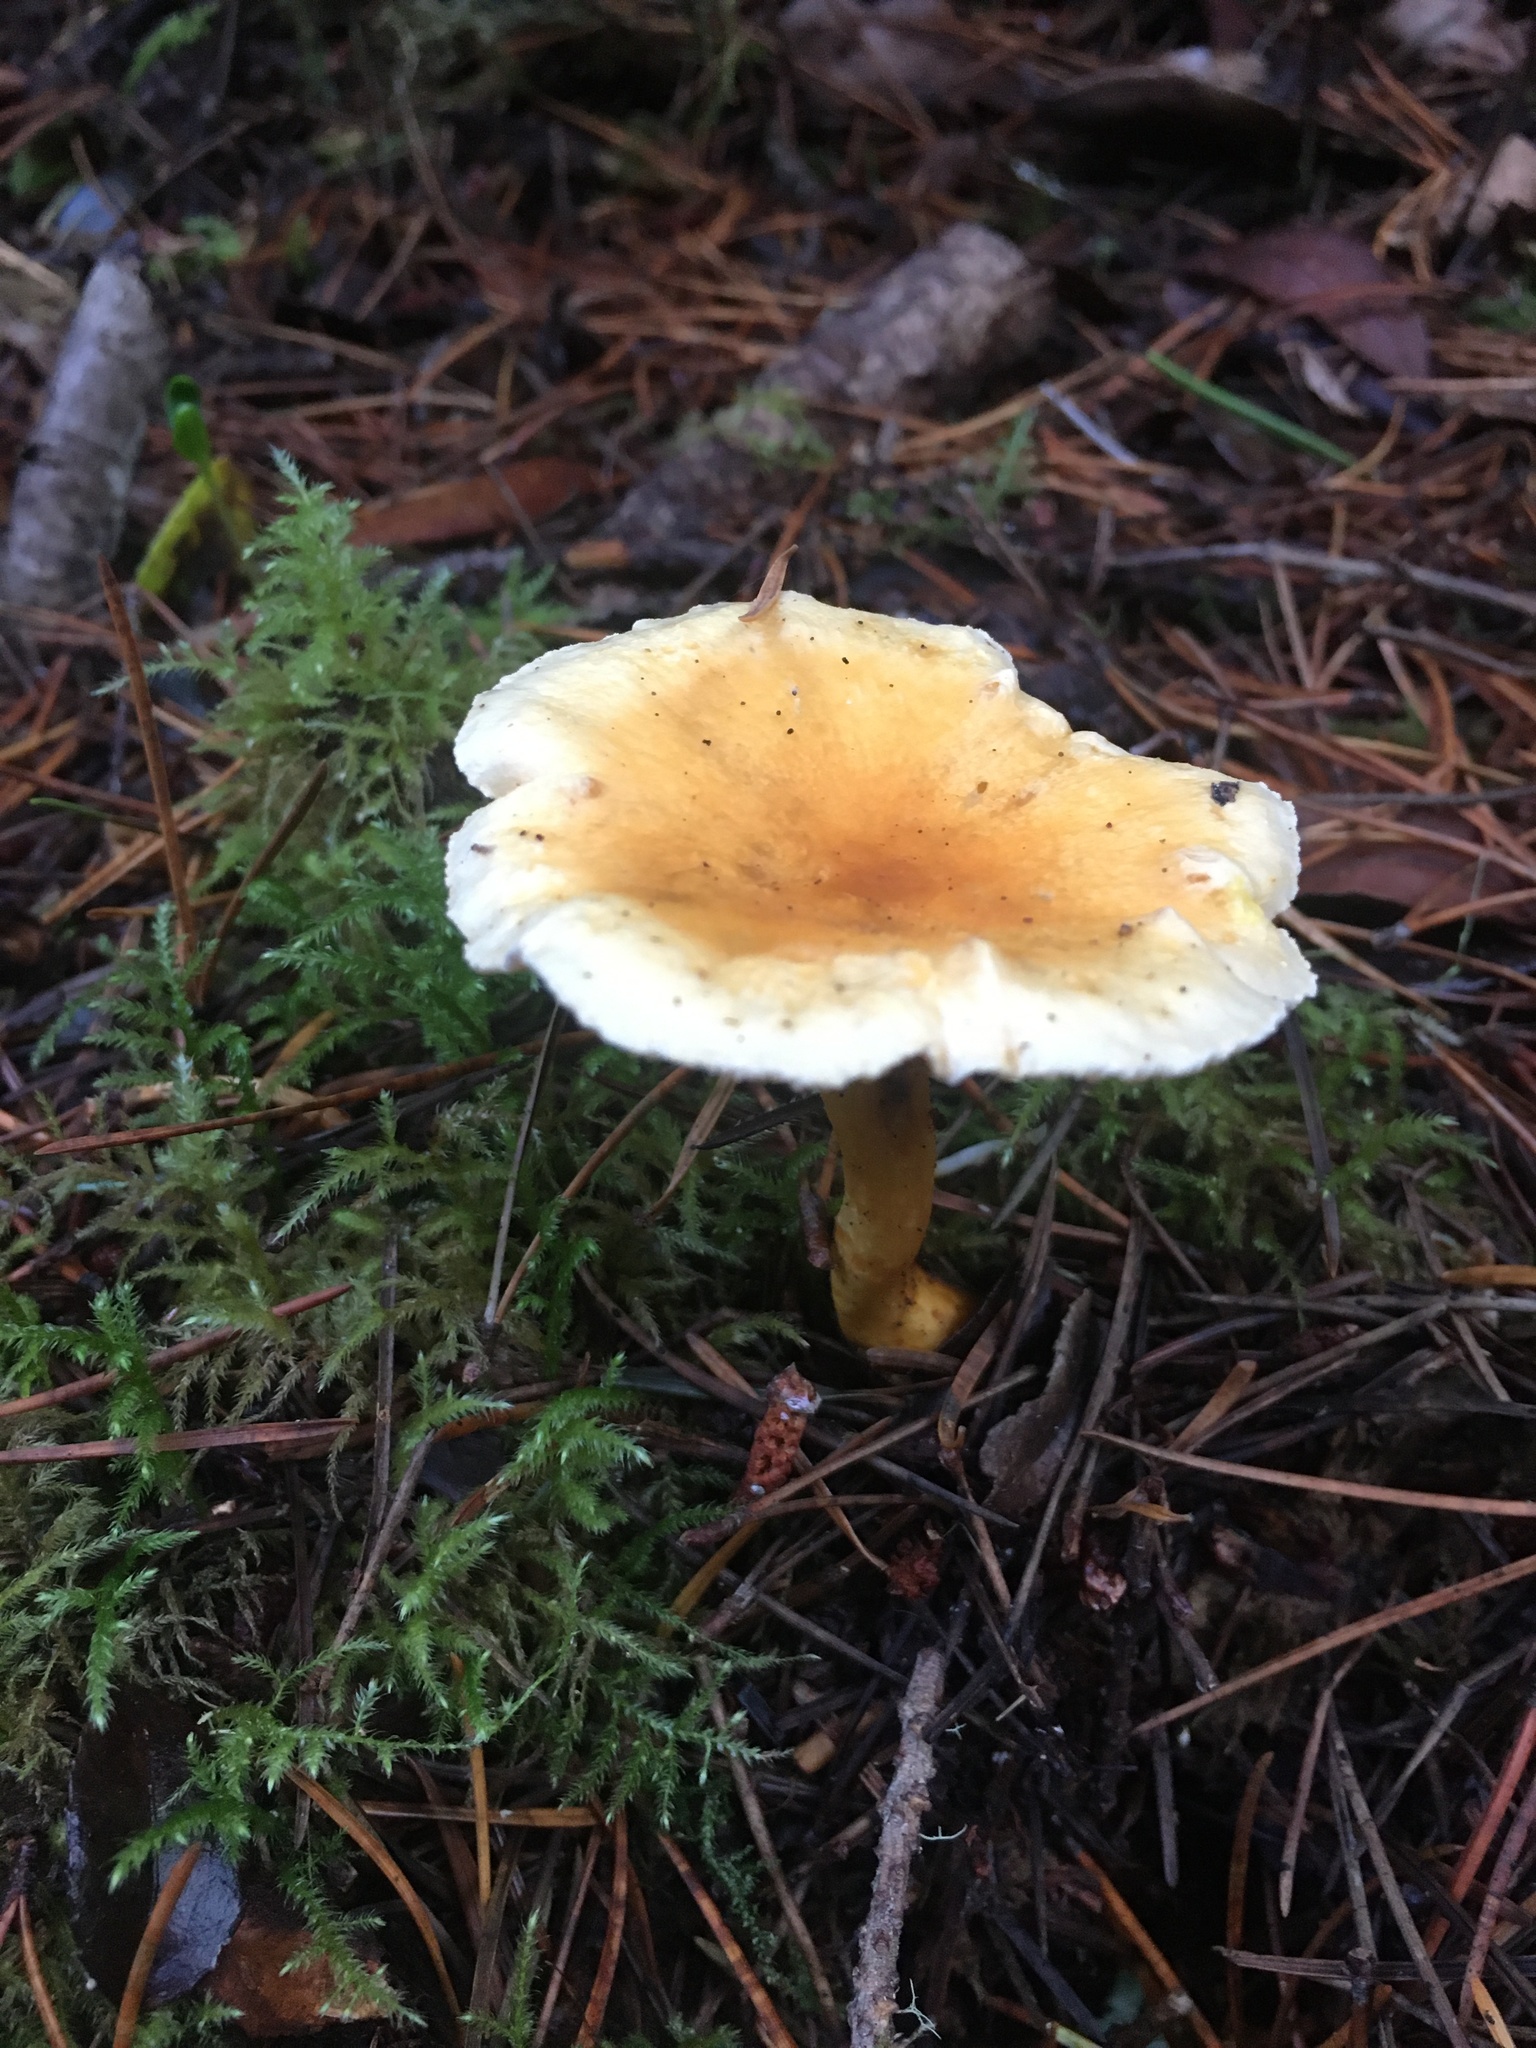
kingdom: Fungi
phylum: Basidiomycota
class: Agaricomycetes
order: Boletales
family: Hygrophoropsidaceae
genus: Hygrophoropsis
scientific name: Hygrophoropsis aurantiaca
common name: False chanterelle
